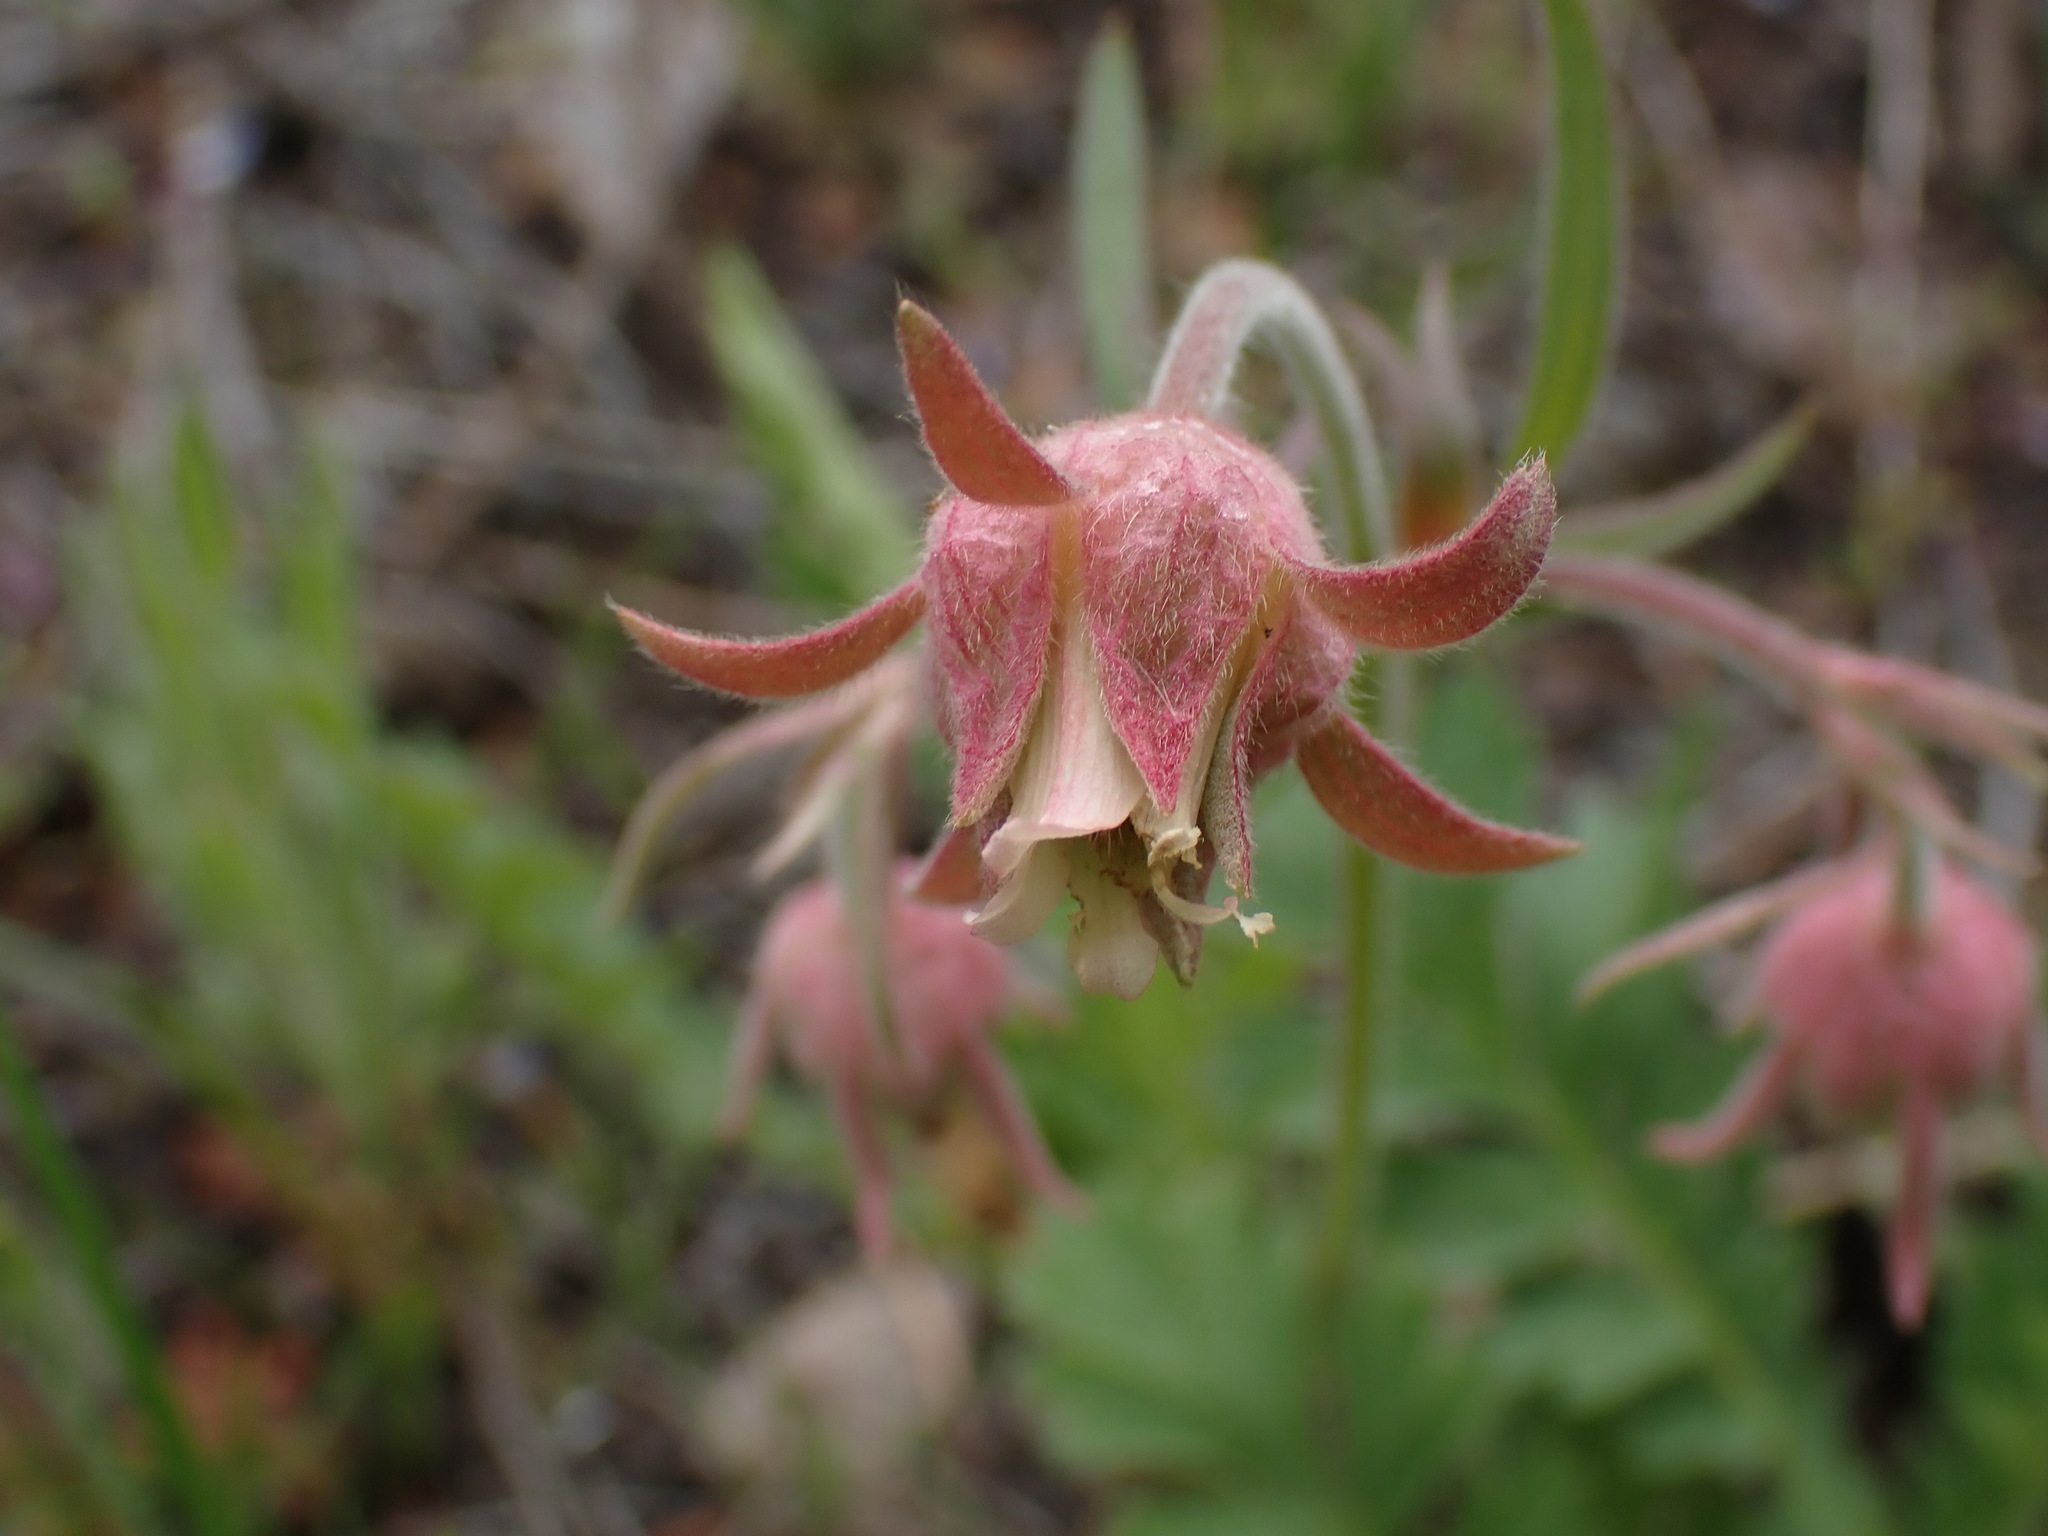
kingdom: Plantae
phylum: Tracheophyta
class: Magnoliopsida
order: Rosales
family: Rosaceae
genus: Geum
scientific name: Geum triflorum
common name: Old man's whiskers
